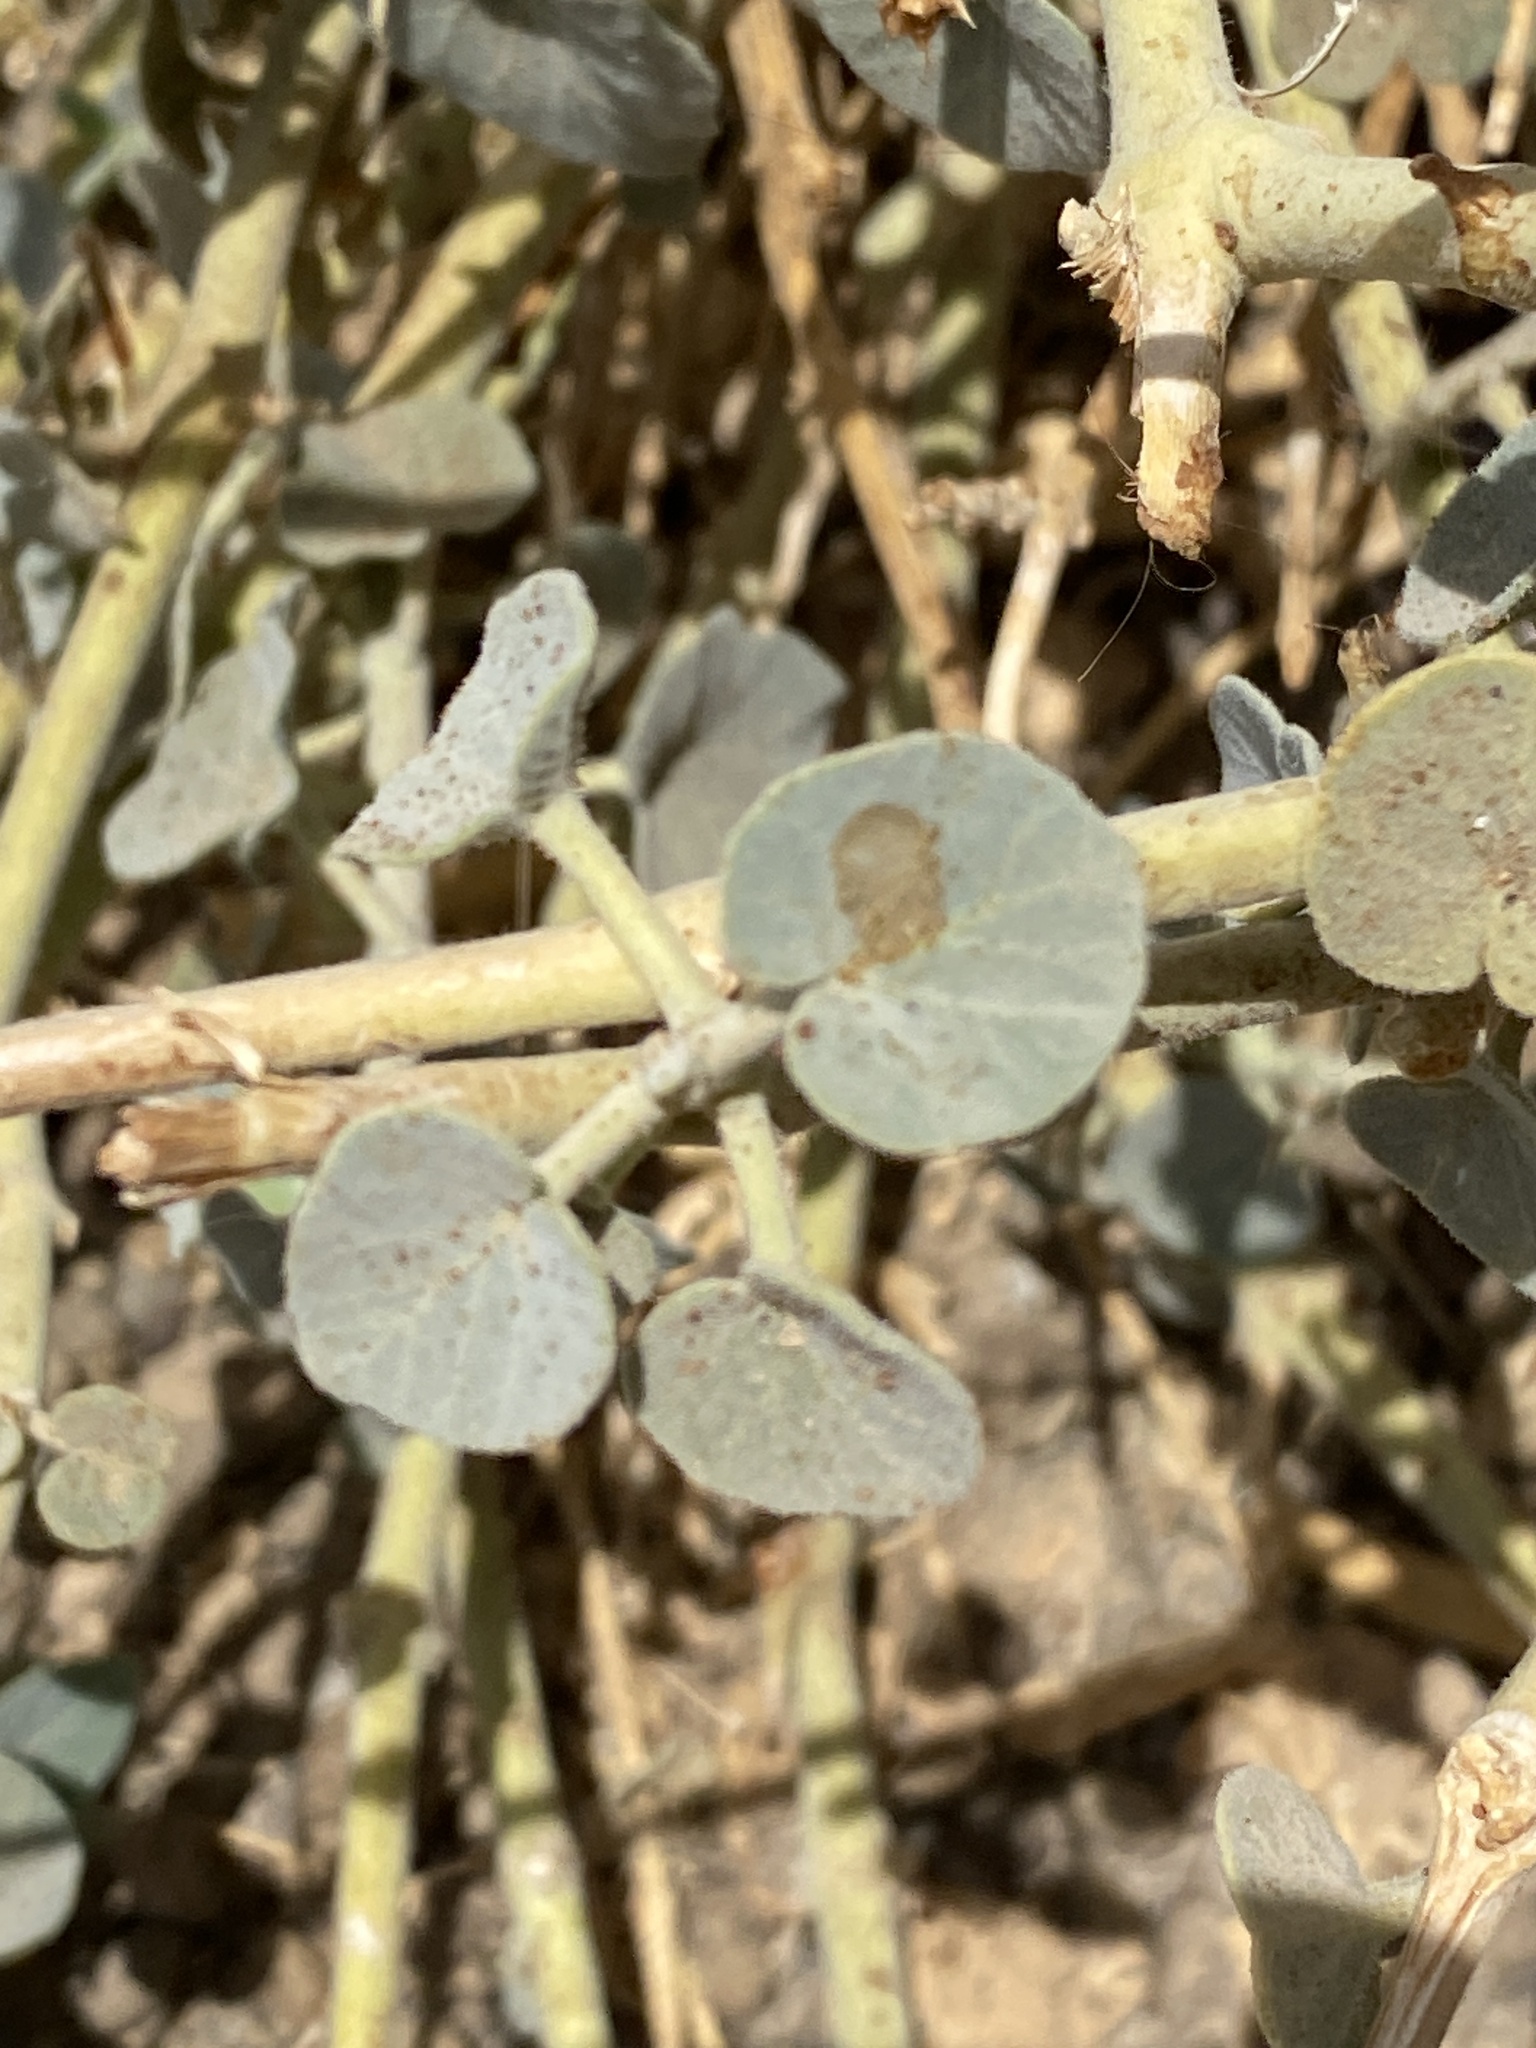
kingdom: Plantae
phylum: Tracheophyta
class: Magnoliopsida
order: Gentianales
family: Apocynaceae
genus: Pergularia
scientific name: Pergularia tomentosa
